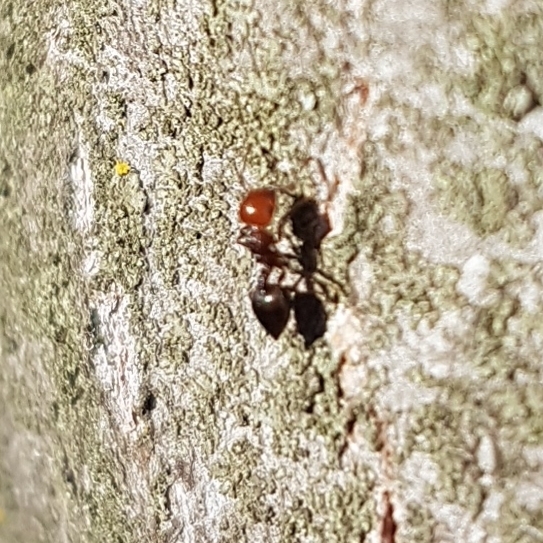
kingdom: Animalia
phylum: Arthropoda
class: Insecta
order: Hymenoptera
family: Formicidae
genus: Crematogaster
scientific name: Crematogaster scutellaris
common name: Fourmi du liège
